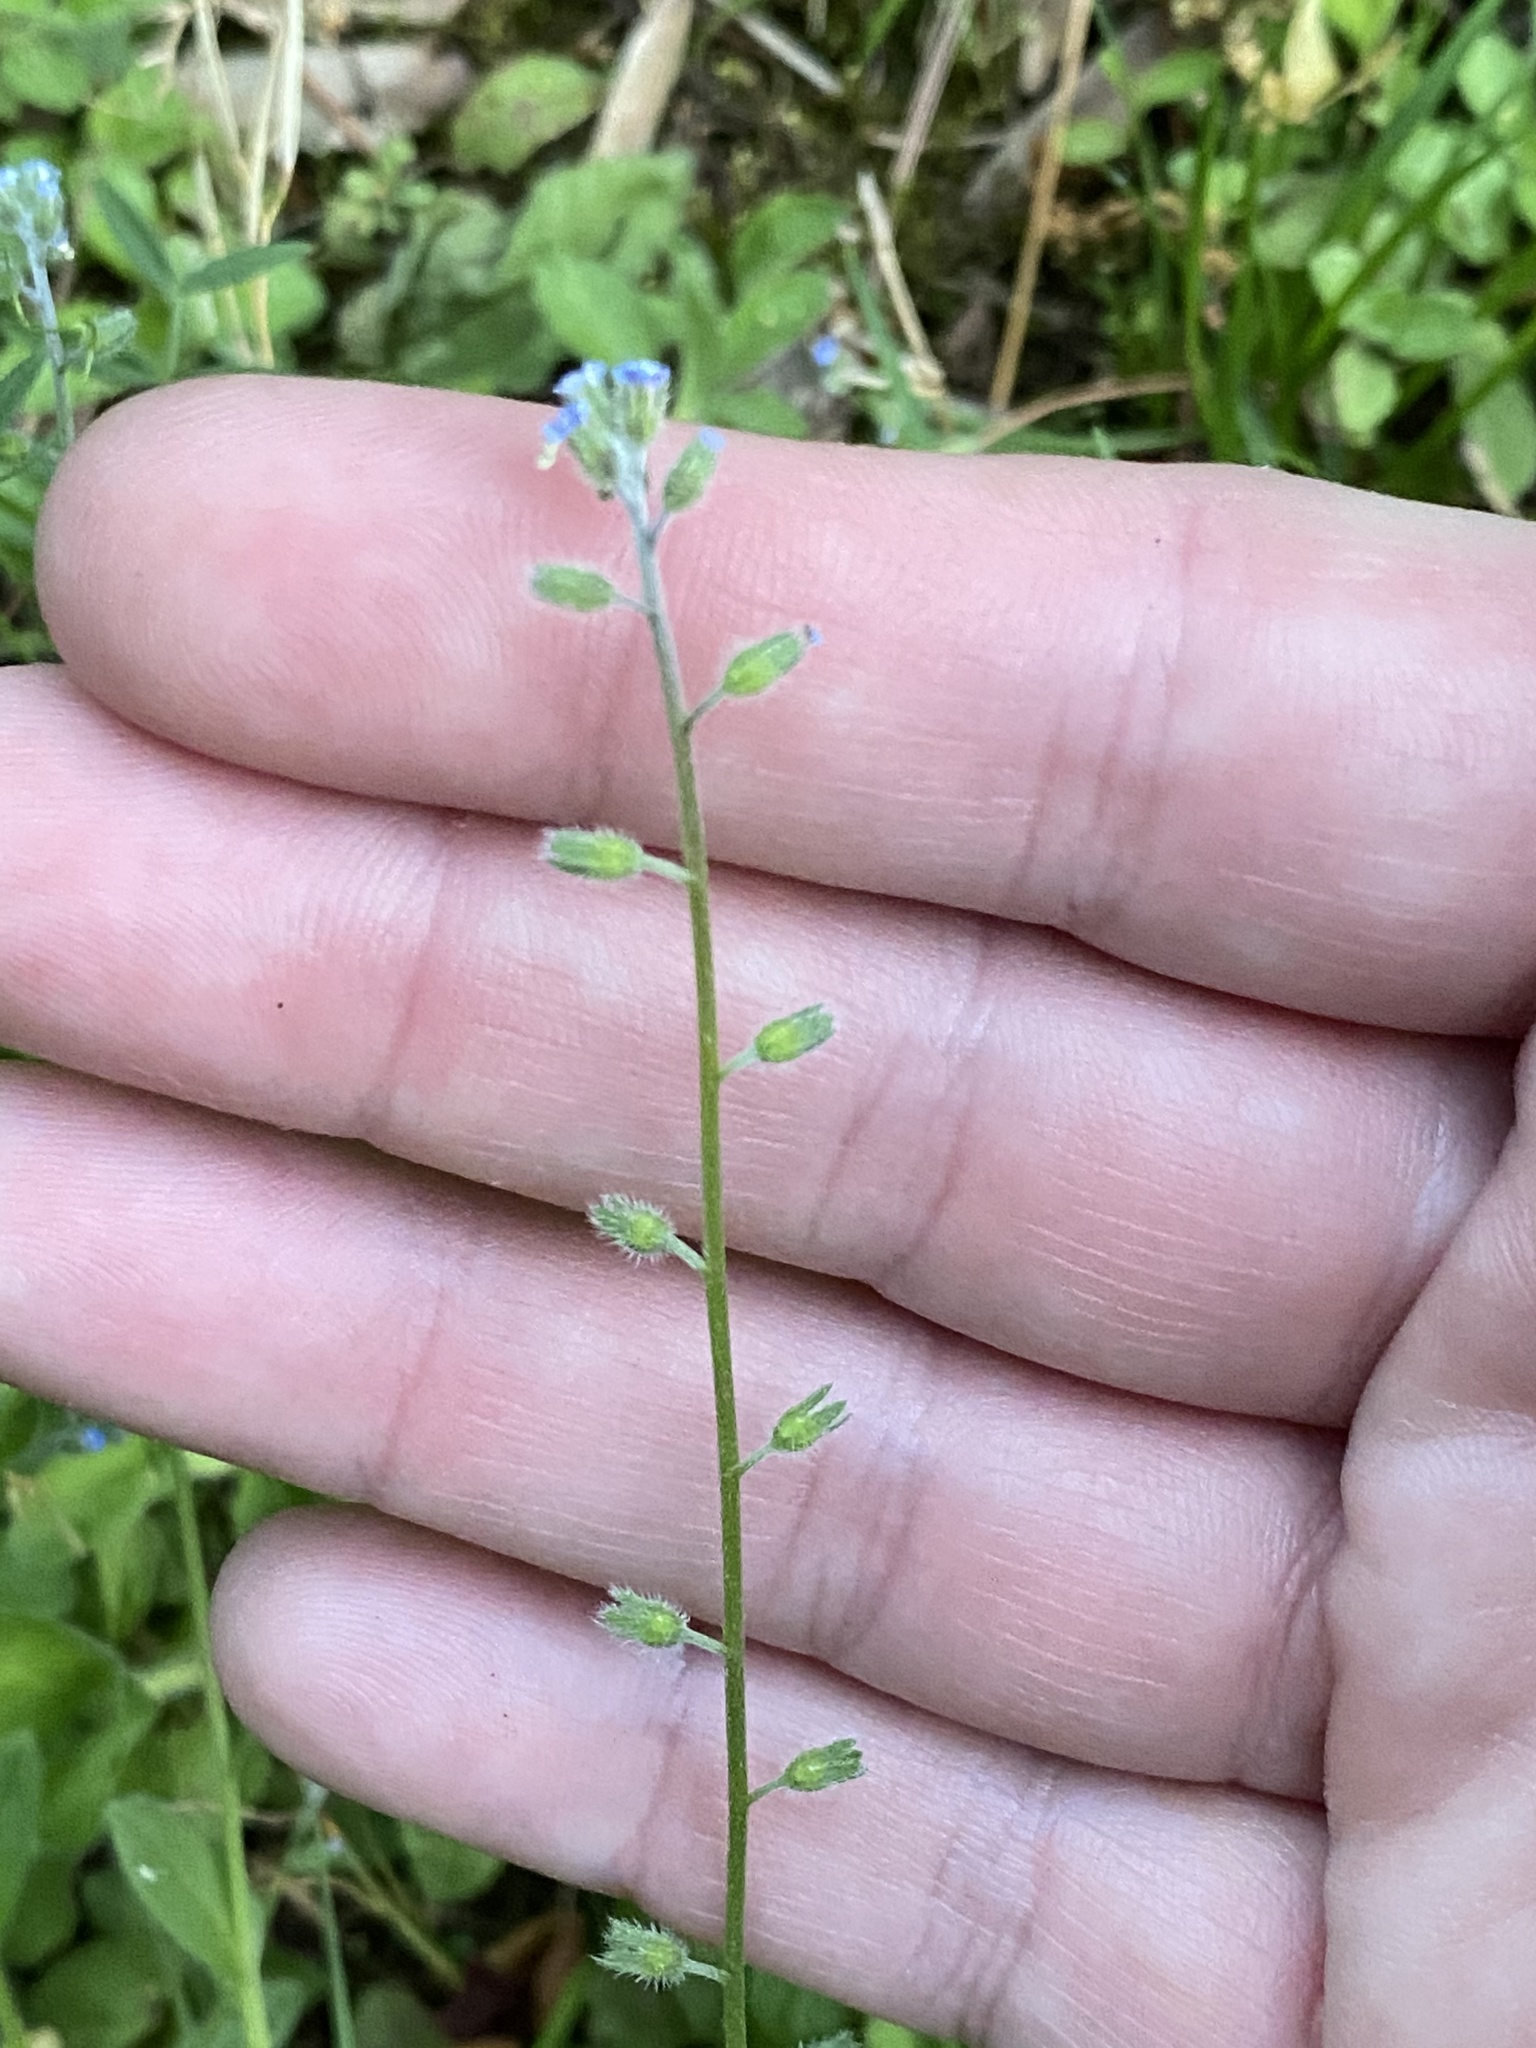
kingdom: Plantae
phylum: Tracheophyta
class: Magnoliopsida
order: Boraginales
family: Boraginaceae
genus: Myosotis
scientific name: Myosotis ramosissima
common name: Early forget-me-not
